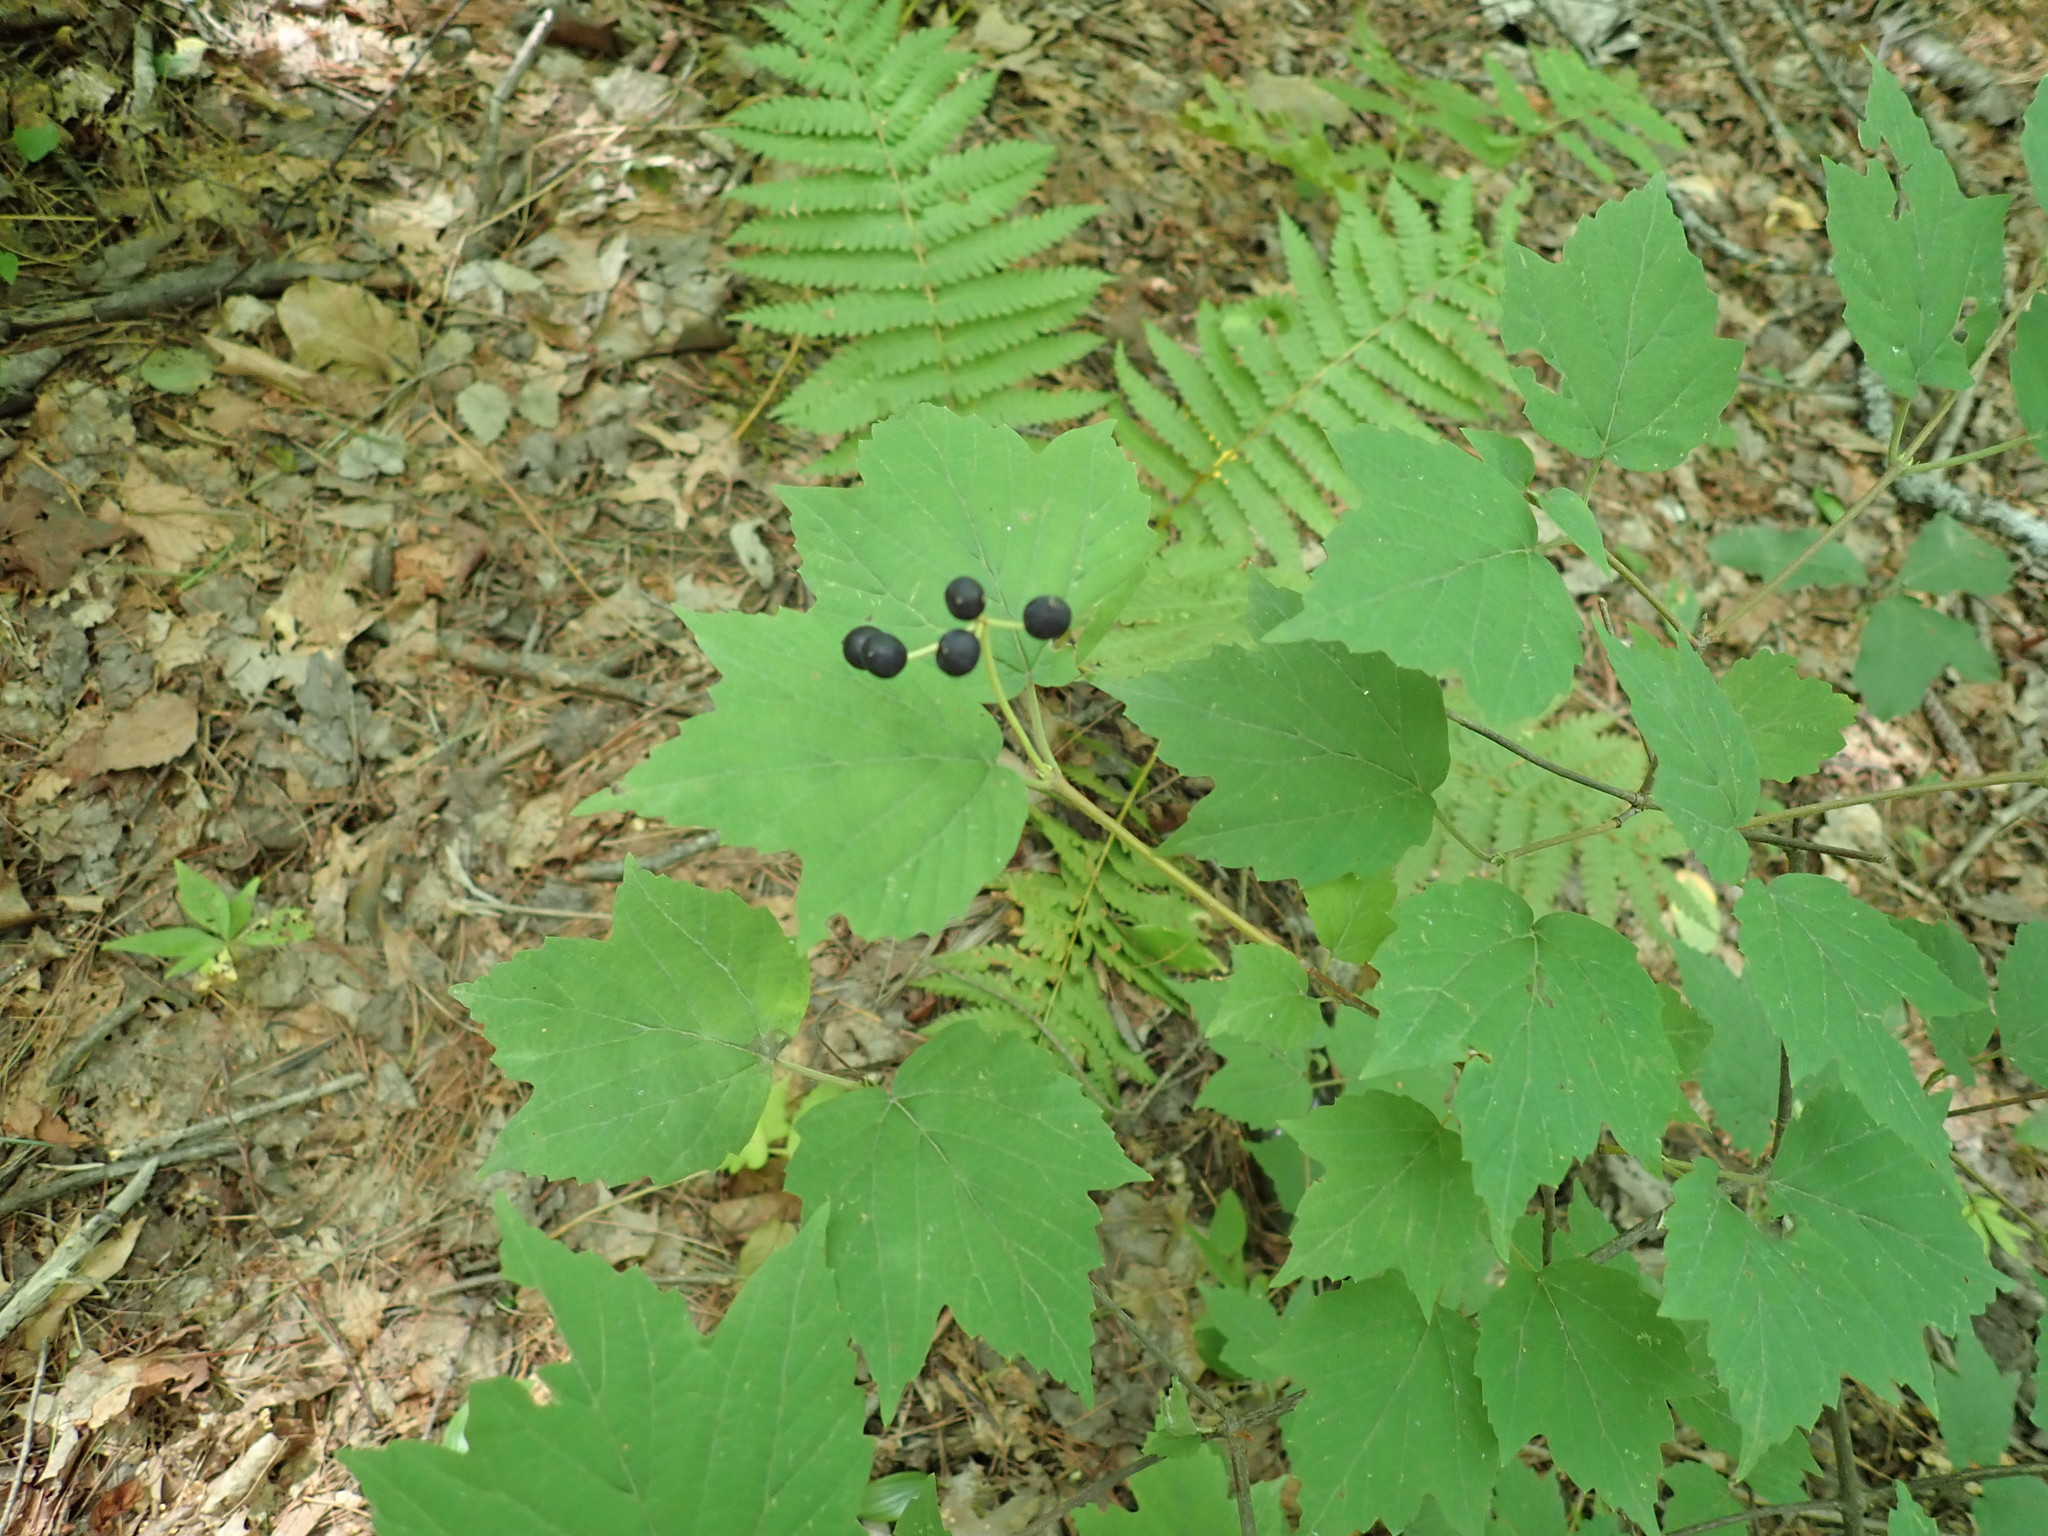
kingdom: Plantae
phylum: Tracheophyta
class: Magnoliopsida
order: Dipsacales
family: Viburnaceae
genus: Viburnum
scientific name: Viburnum acerifolium
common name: Dockmackie
